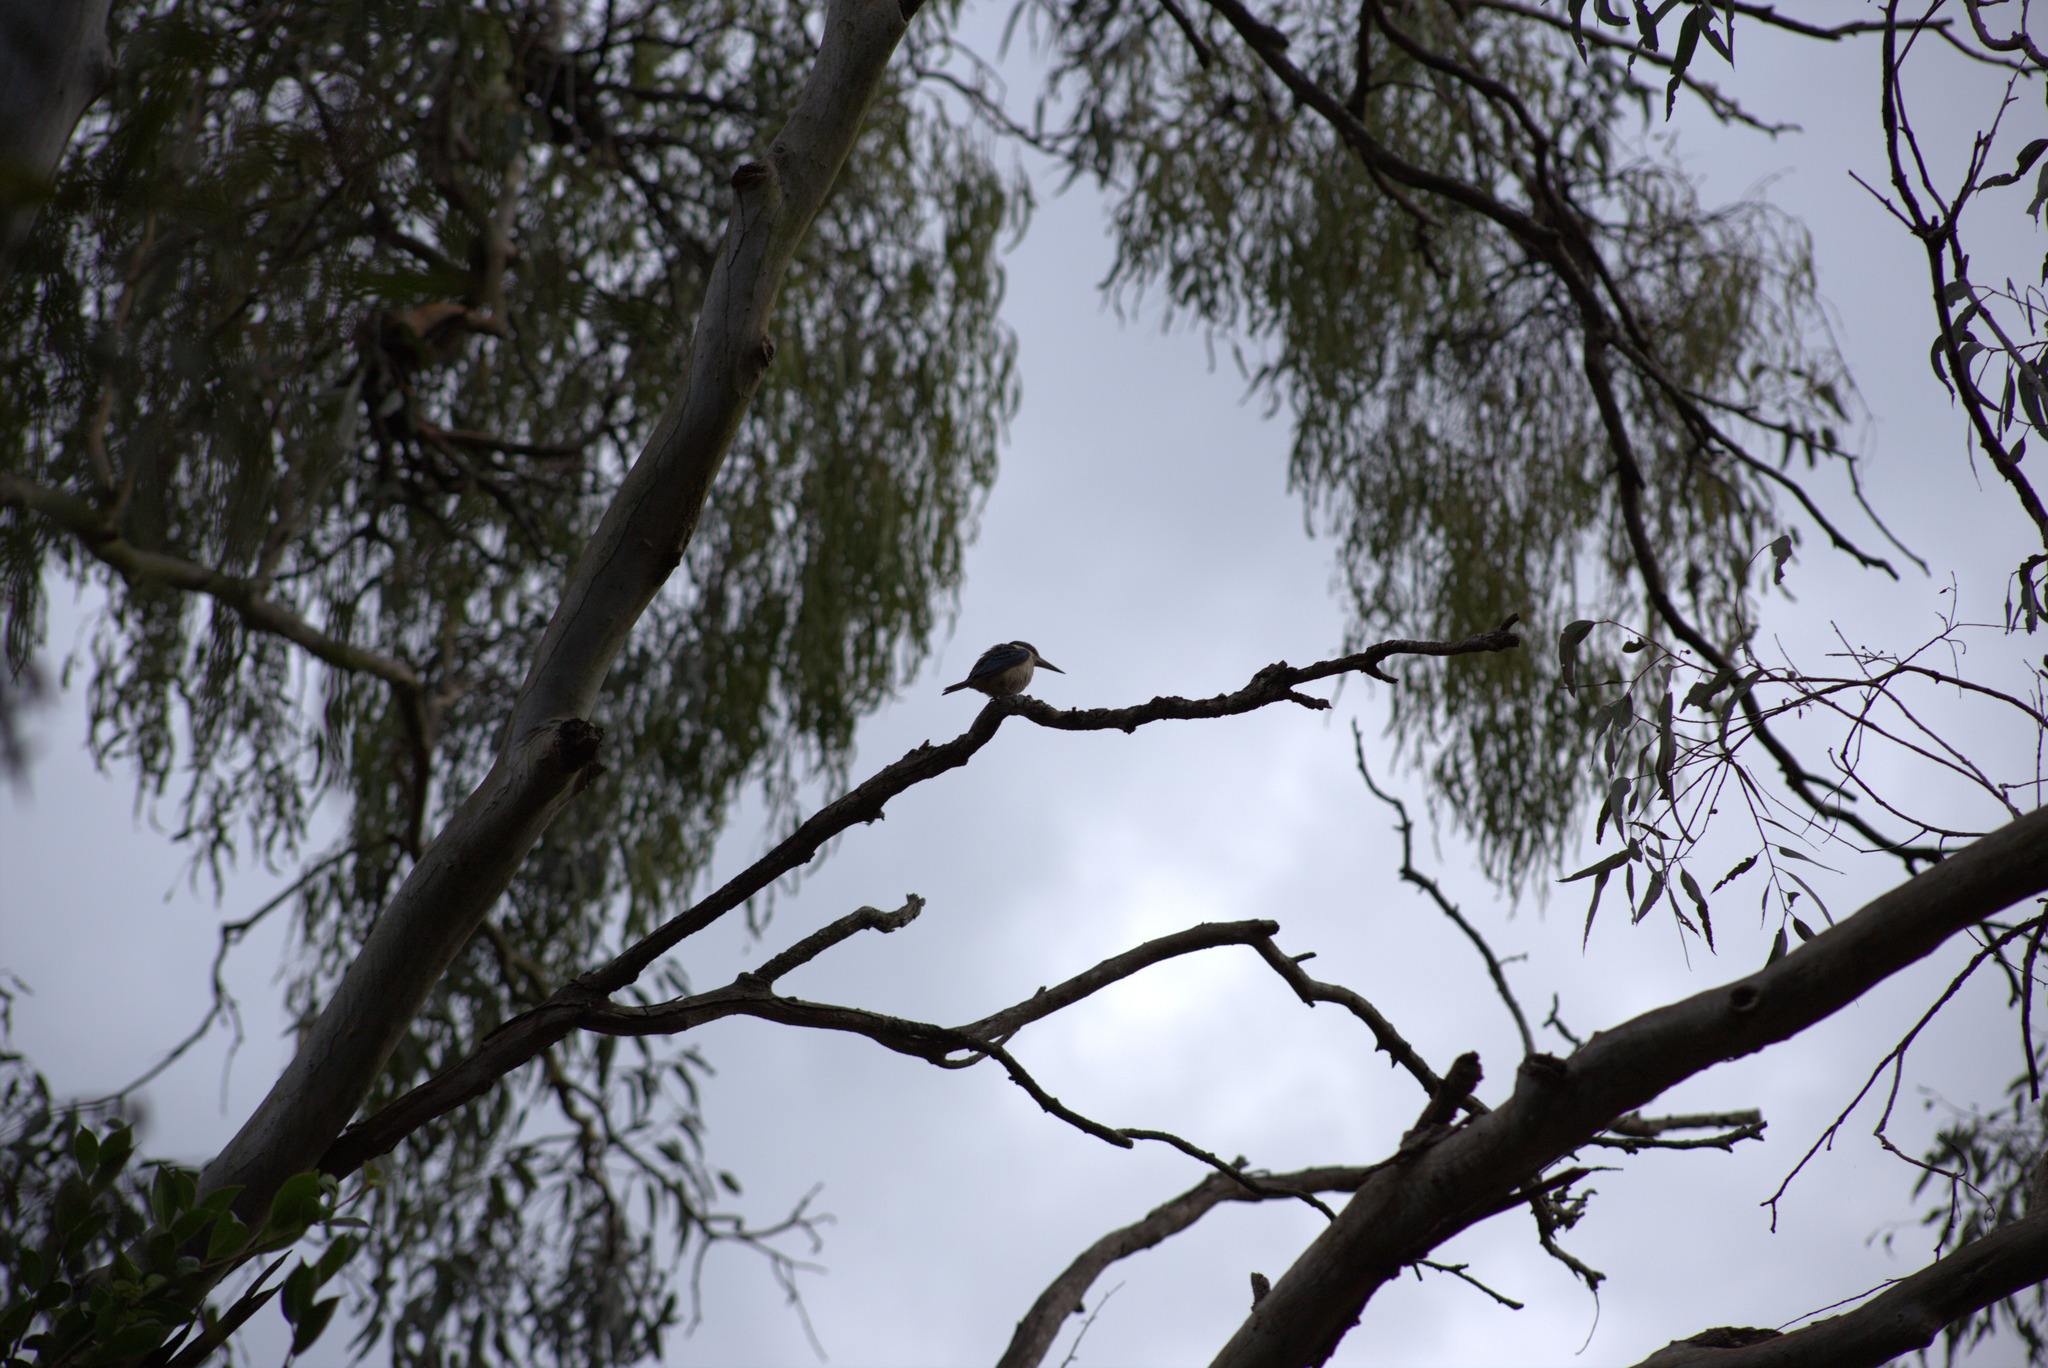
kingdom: Animalia
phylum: Chordata
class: Aves
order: Coraciiformes
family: Alcedinidae
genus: Todiramphus
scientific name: Todiramphus sanctus
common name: Sacred kingfisher
